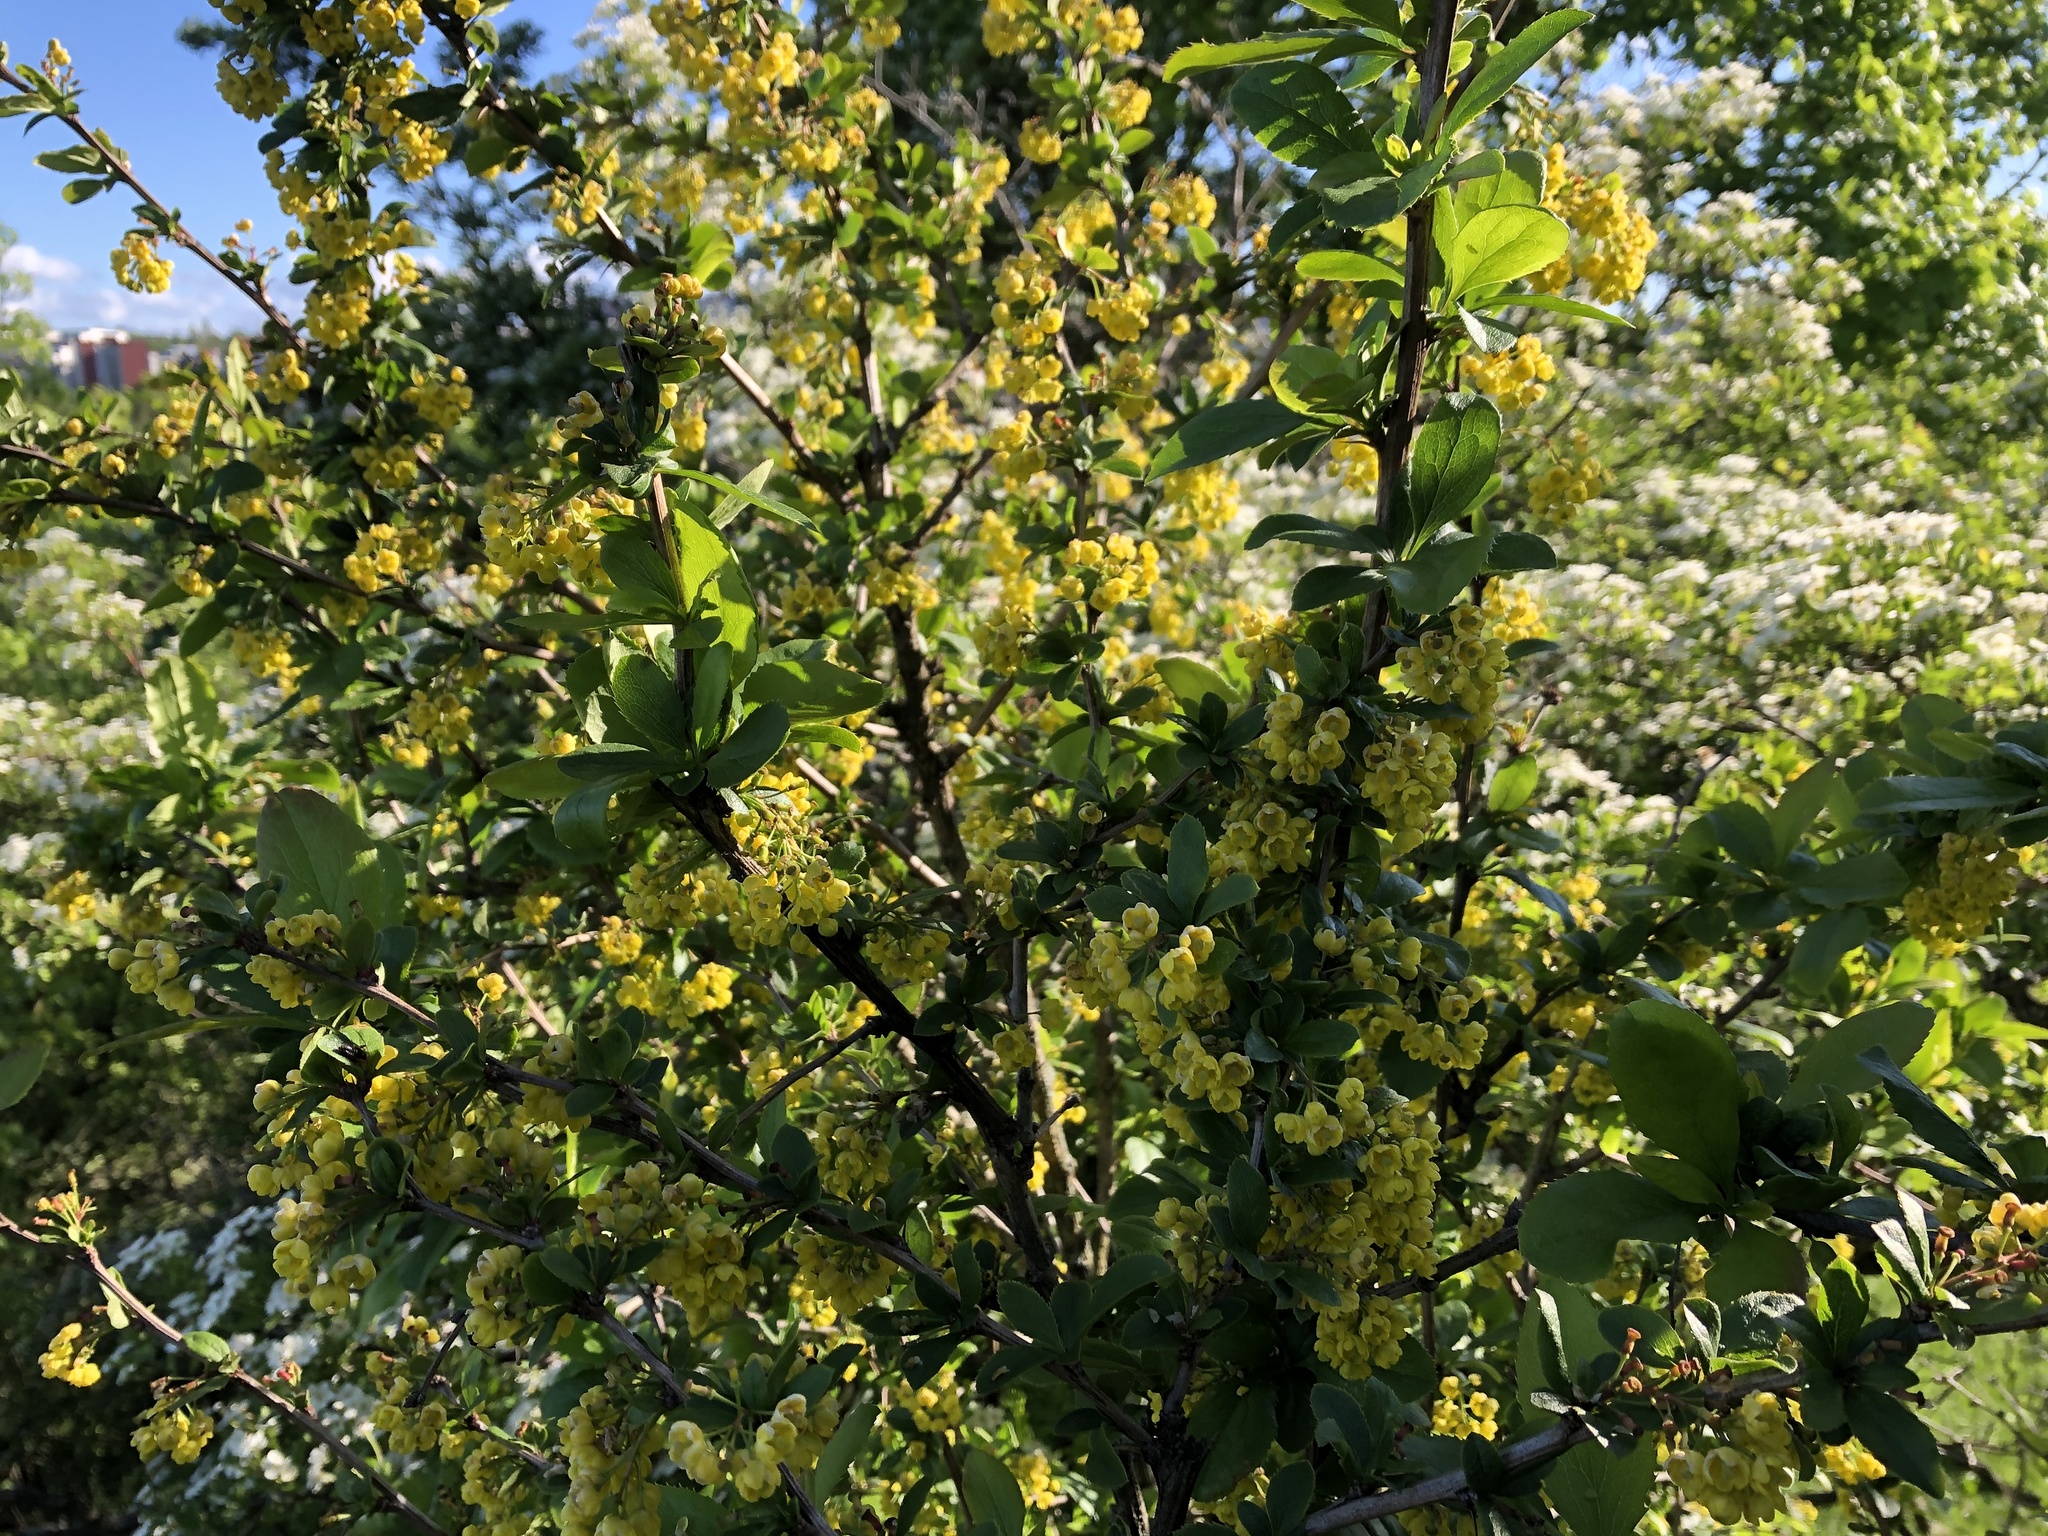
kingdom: Plantae
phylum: Tracheophyta
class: Magnoliopsida
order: Ranunculales
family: Berberidaceae
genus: Berberis
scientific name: Berberis vulgaris
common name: Barberry
